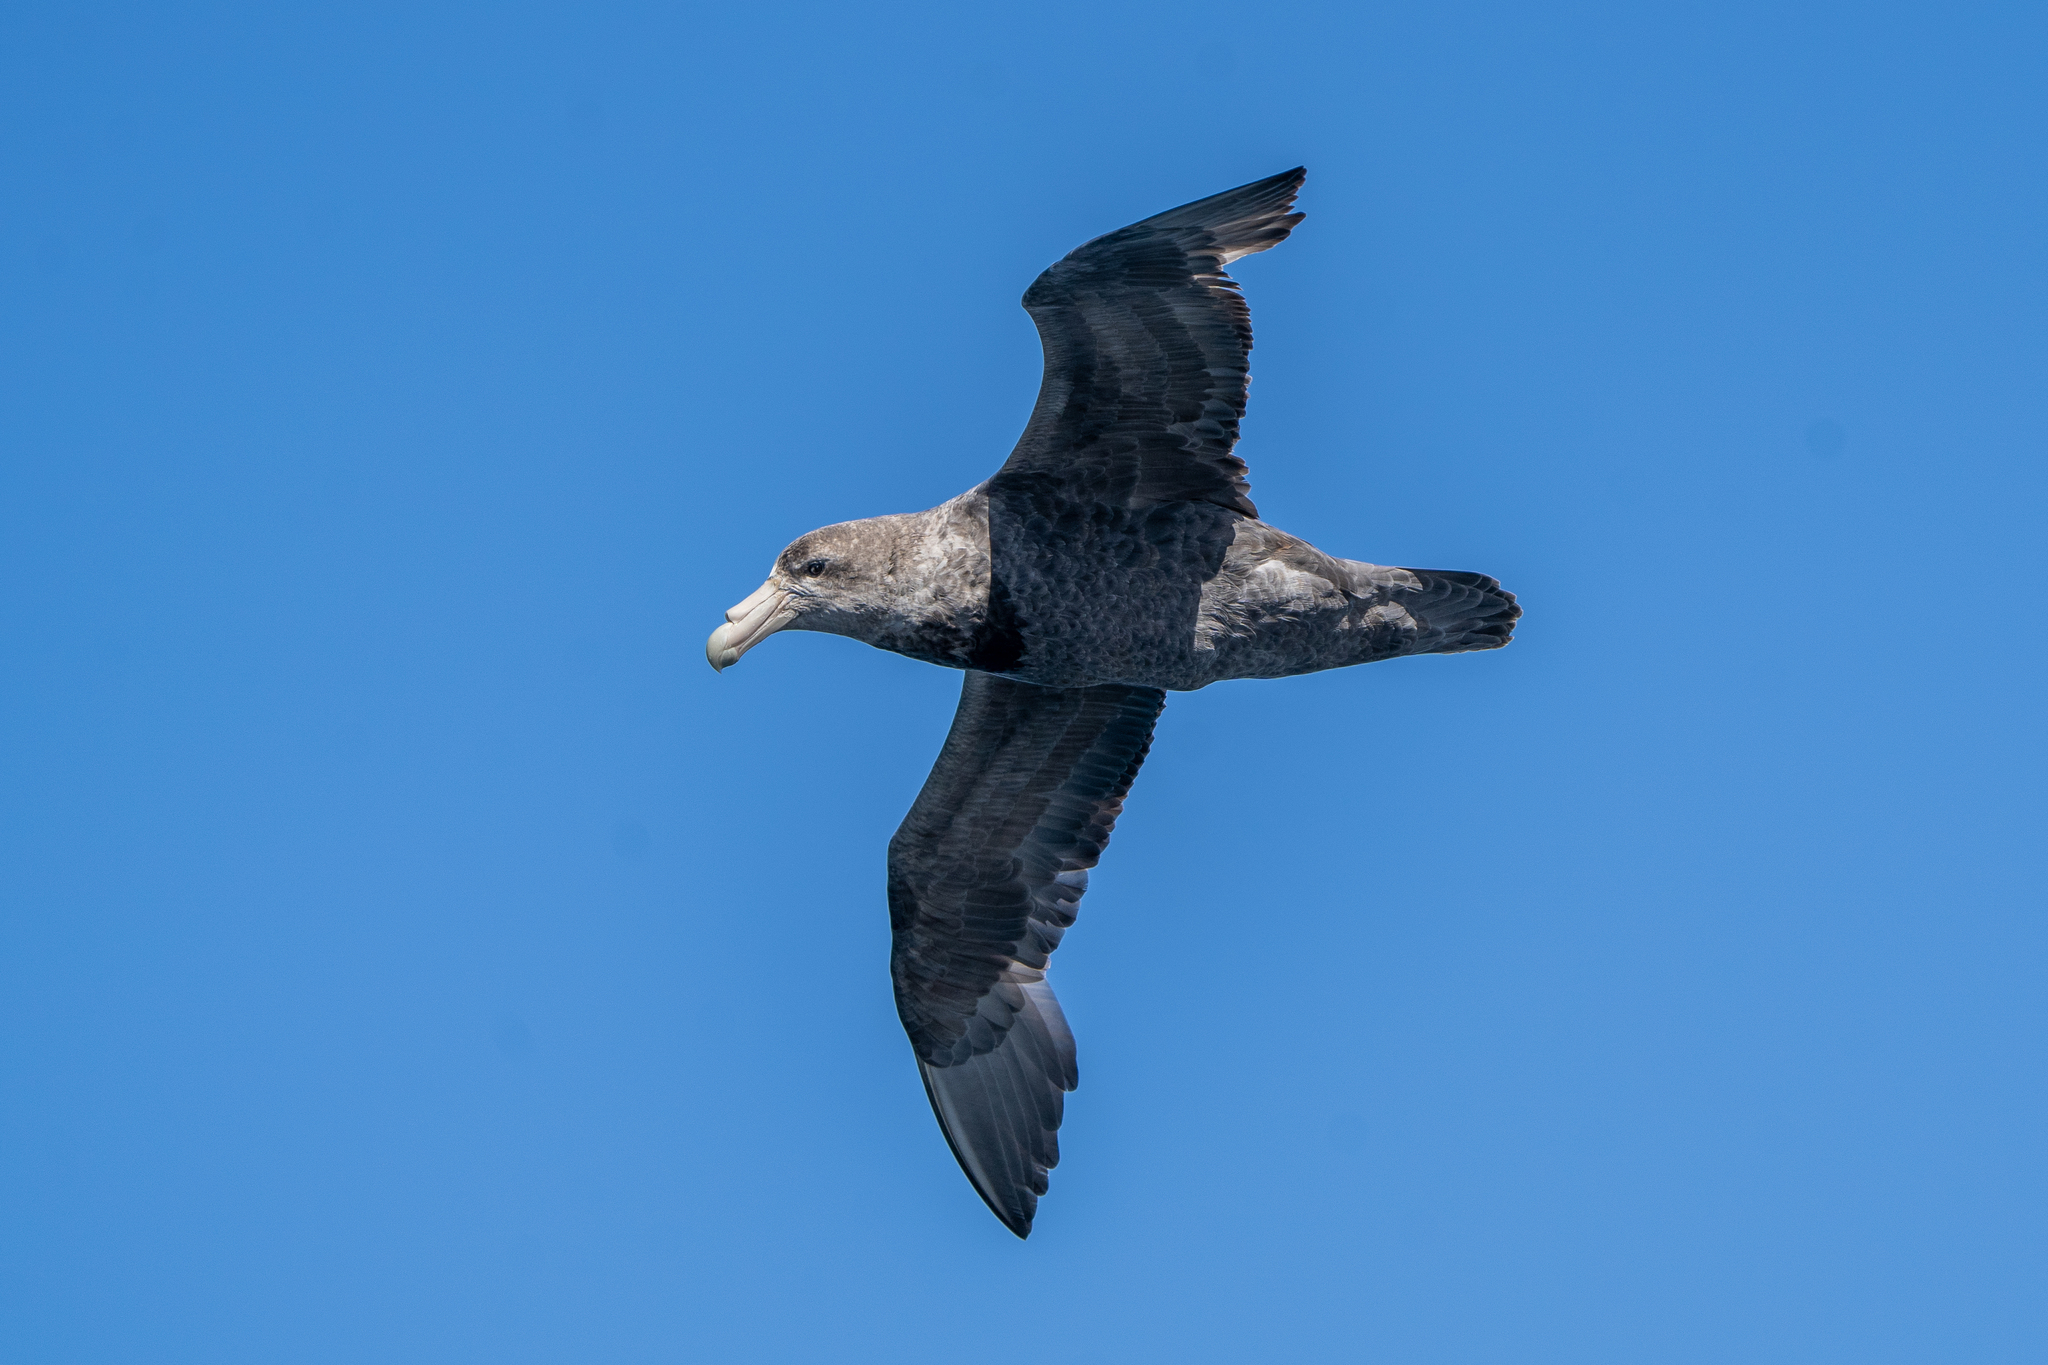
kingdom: Animalia
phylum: Chordata
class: Aves
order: Procellariiformes
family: Procellariidae
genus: Macronectes
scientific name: Macronectes giganteus
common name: Southern giant petrel
